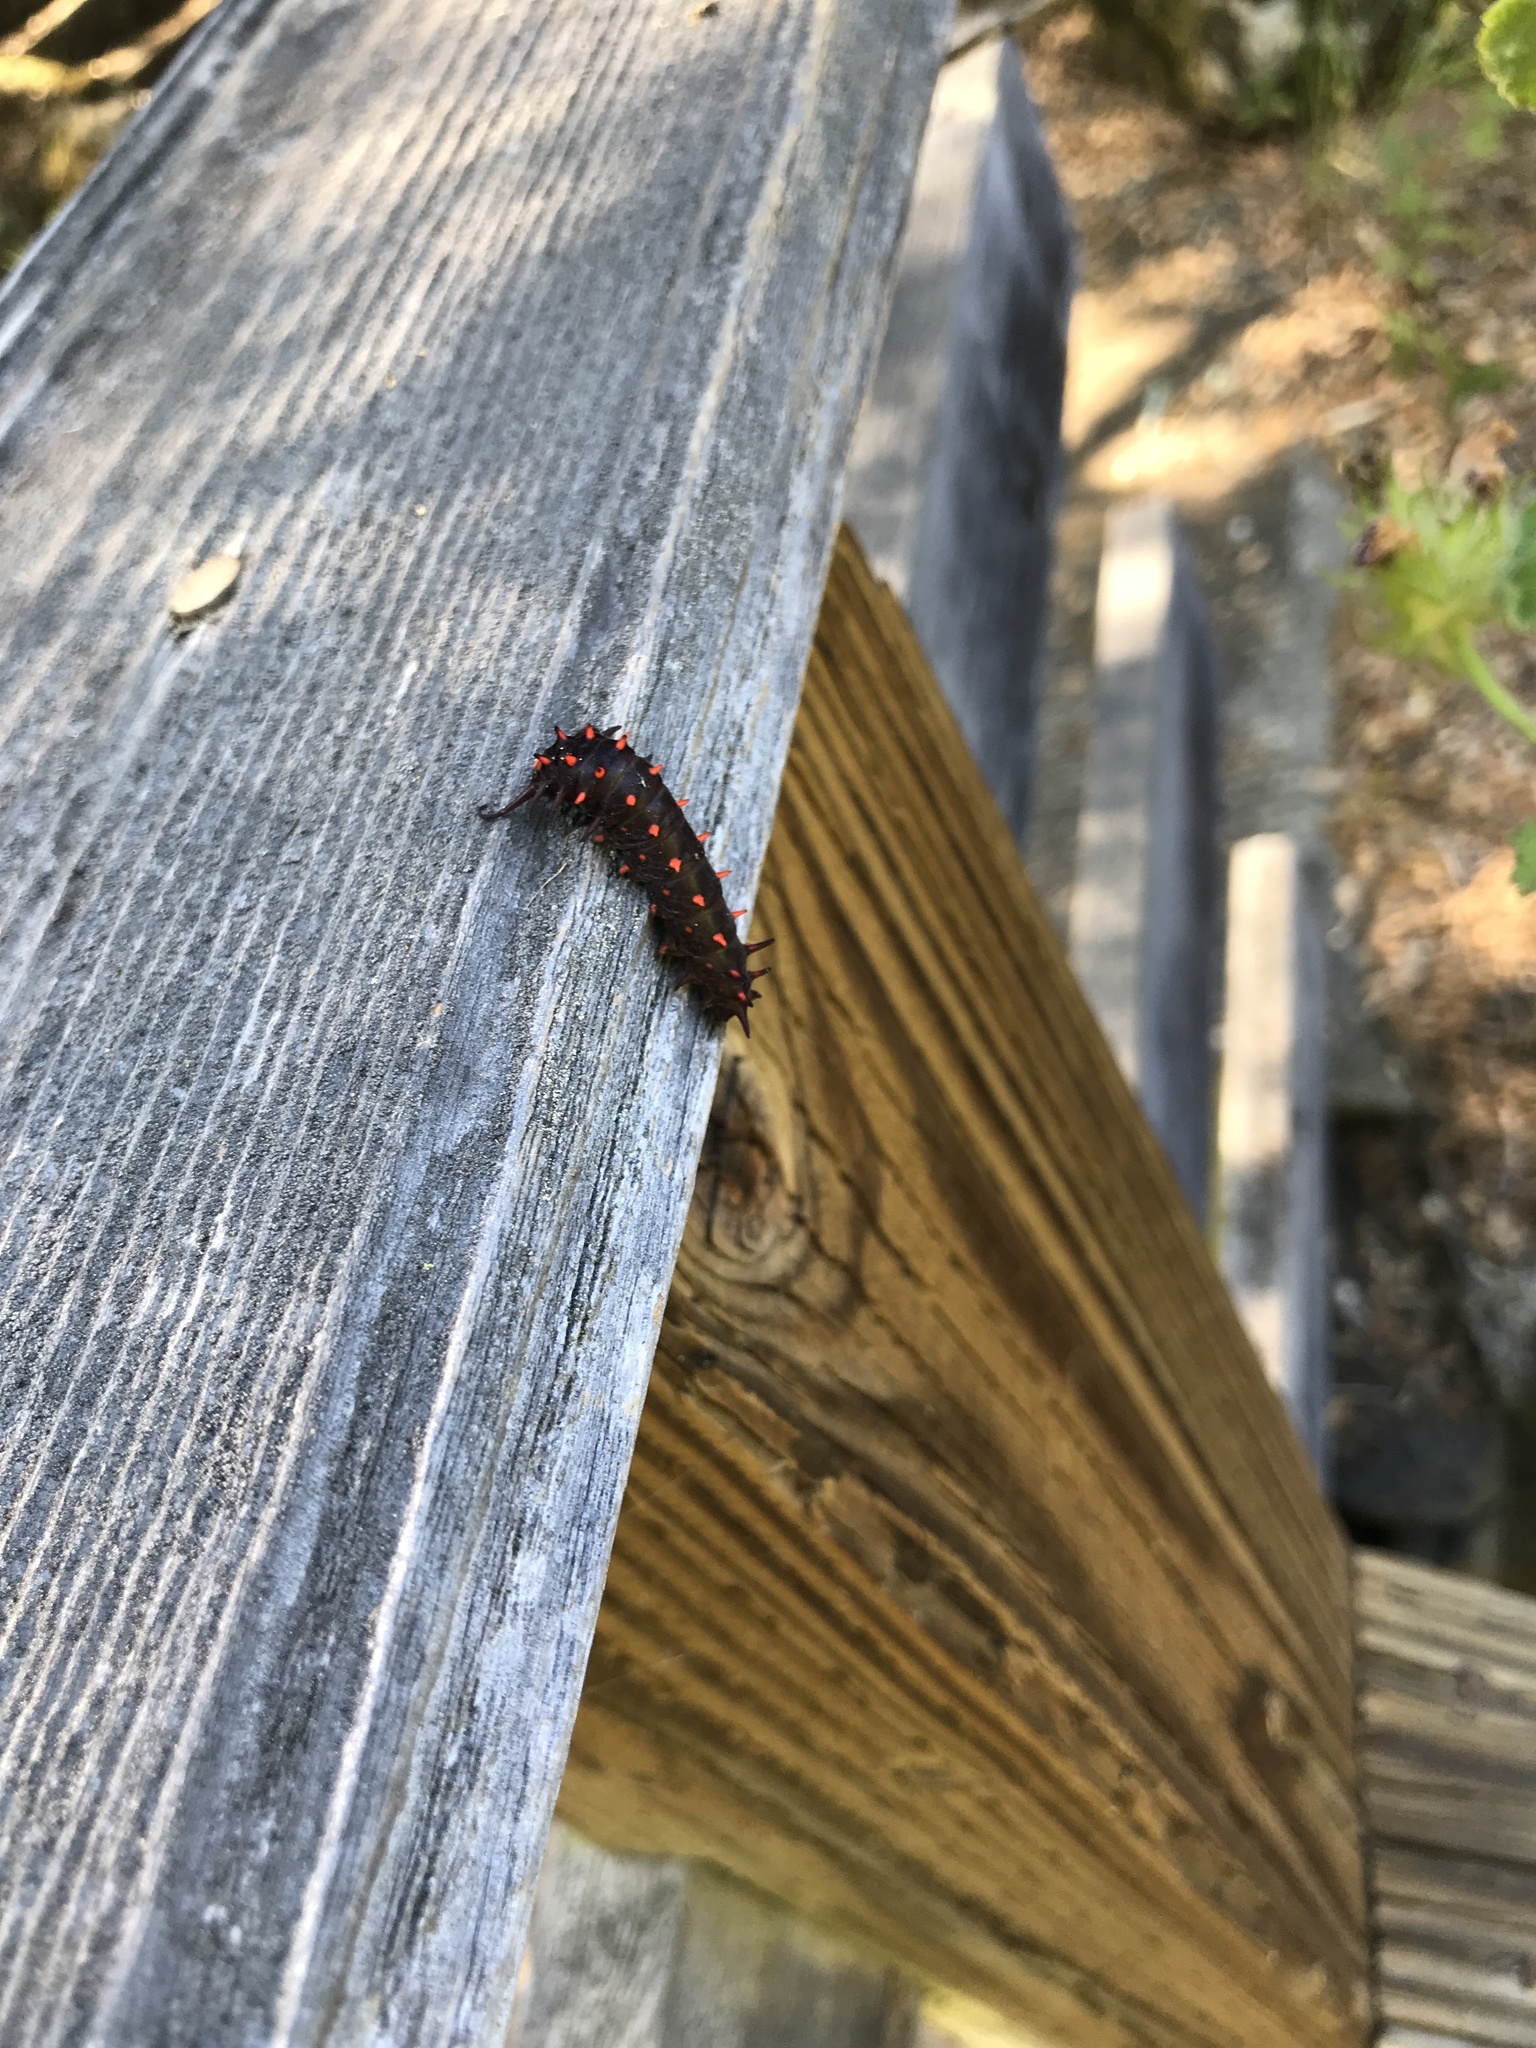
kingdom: Animalia
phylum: Arthropoda
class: Insecta
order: Lepidoptera
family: Papilionidae
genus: Battus
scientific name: Battus philenor
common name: Pipevine swallowtail
